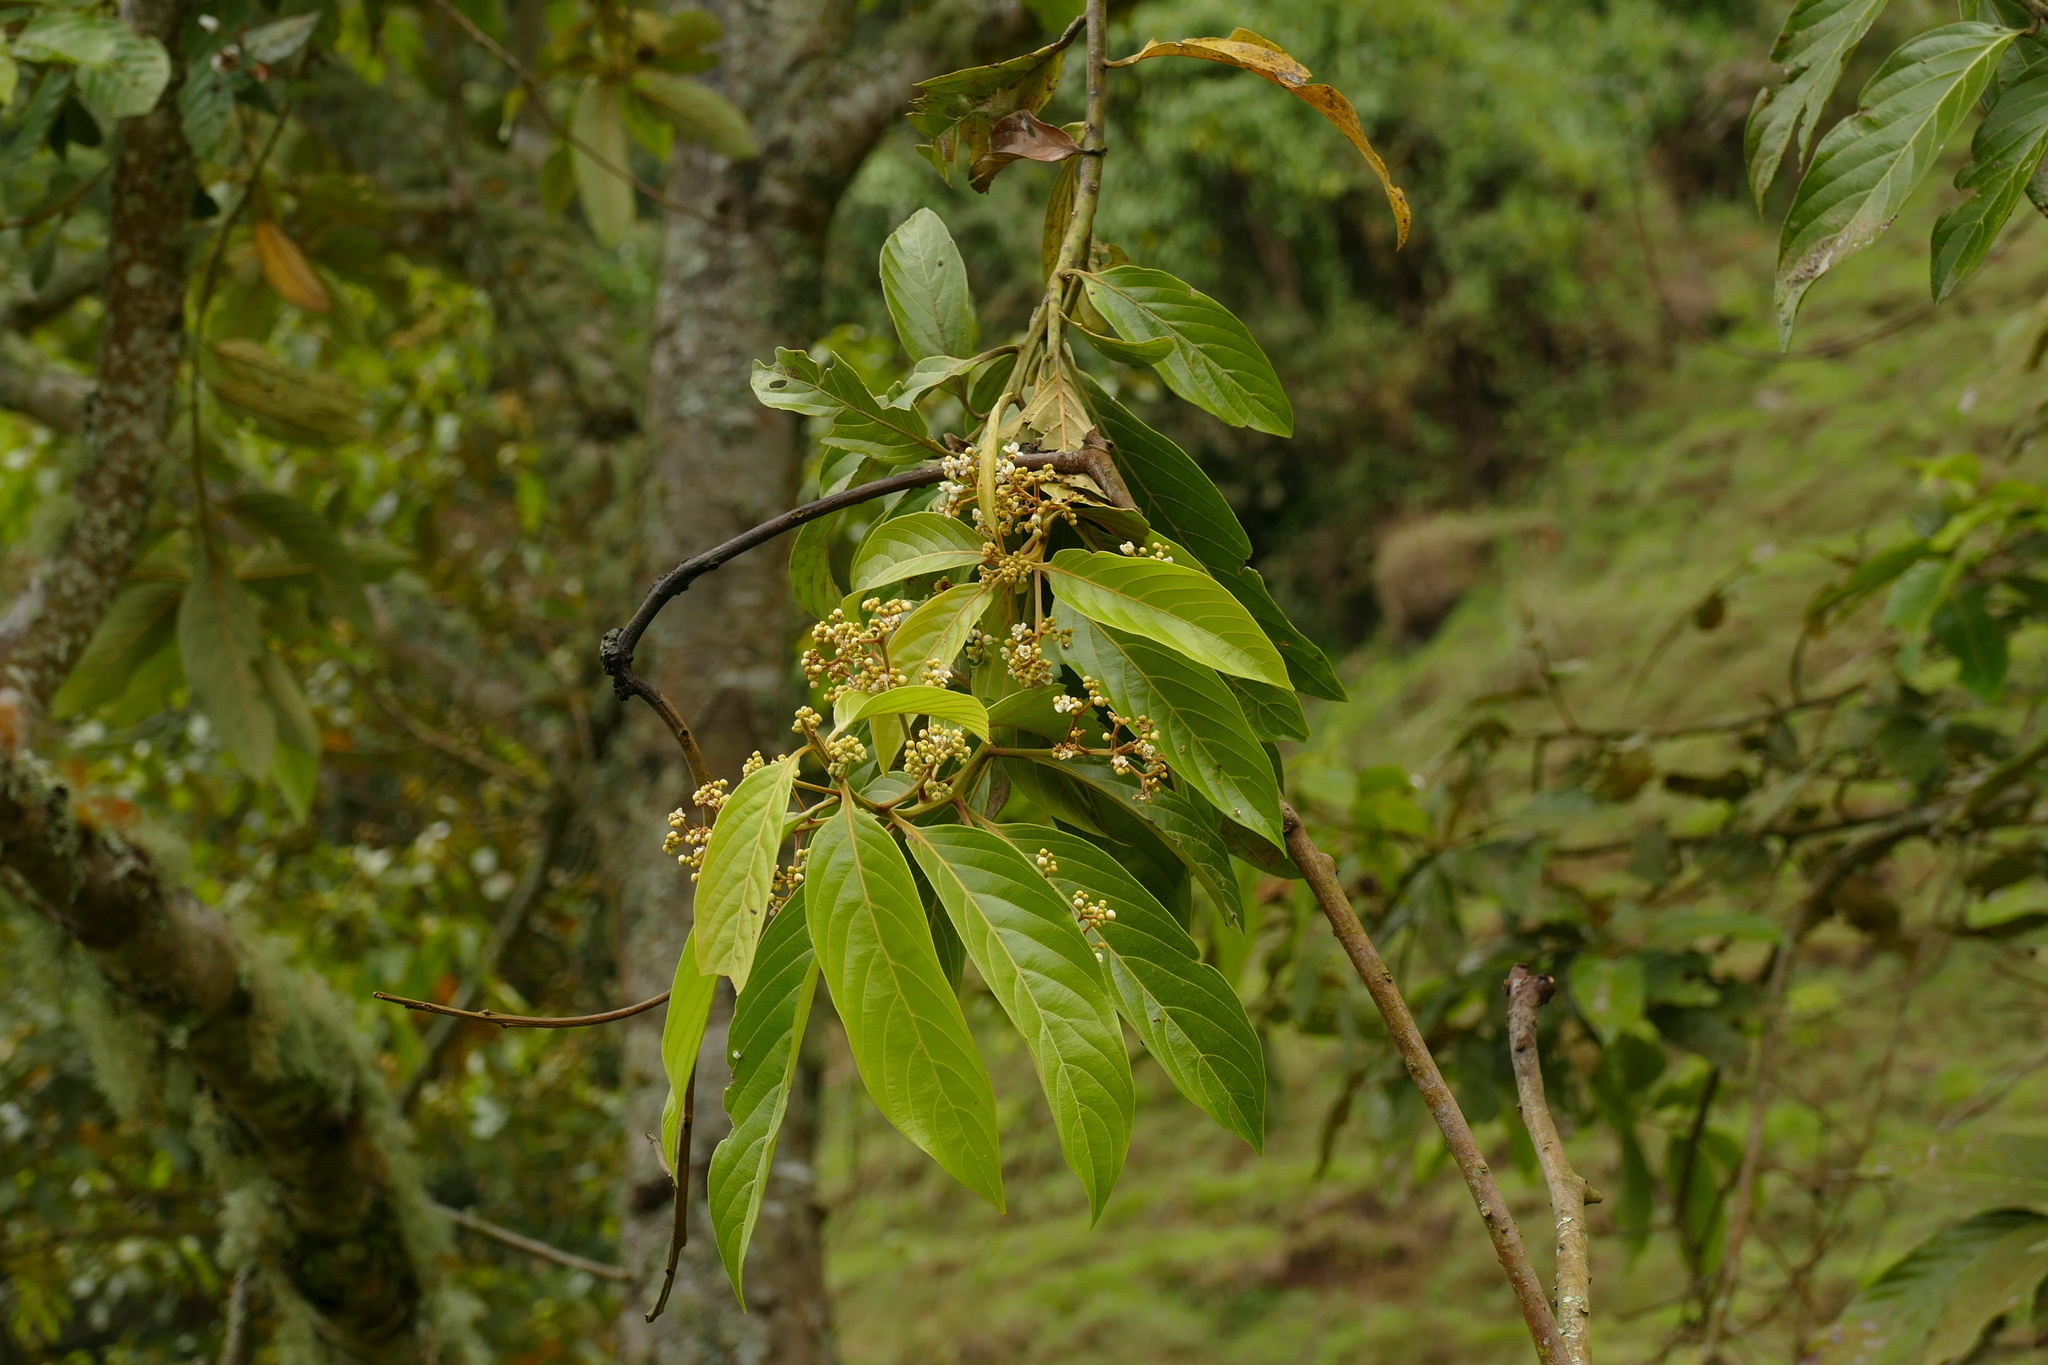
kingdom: Plantae
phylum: Tracheophyta
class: Magnoliopsida
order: Laurales
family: Lauraceae
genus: Nectandra
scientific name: Nectandra discolor
